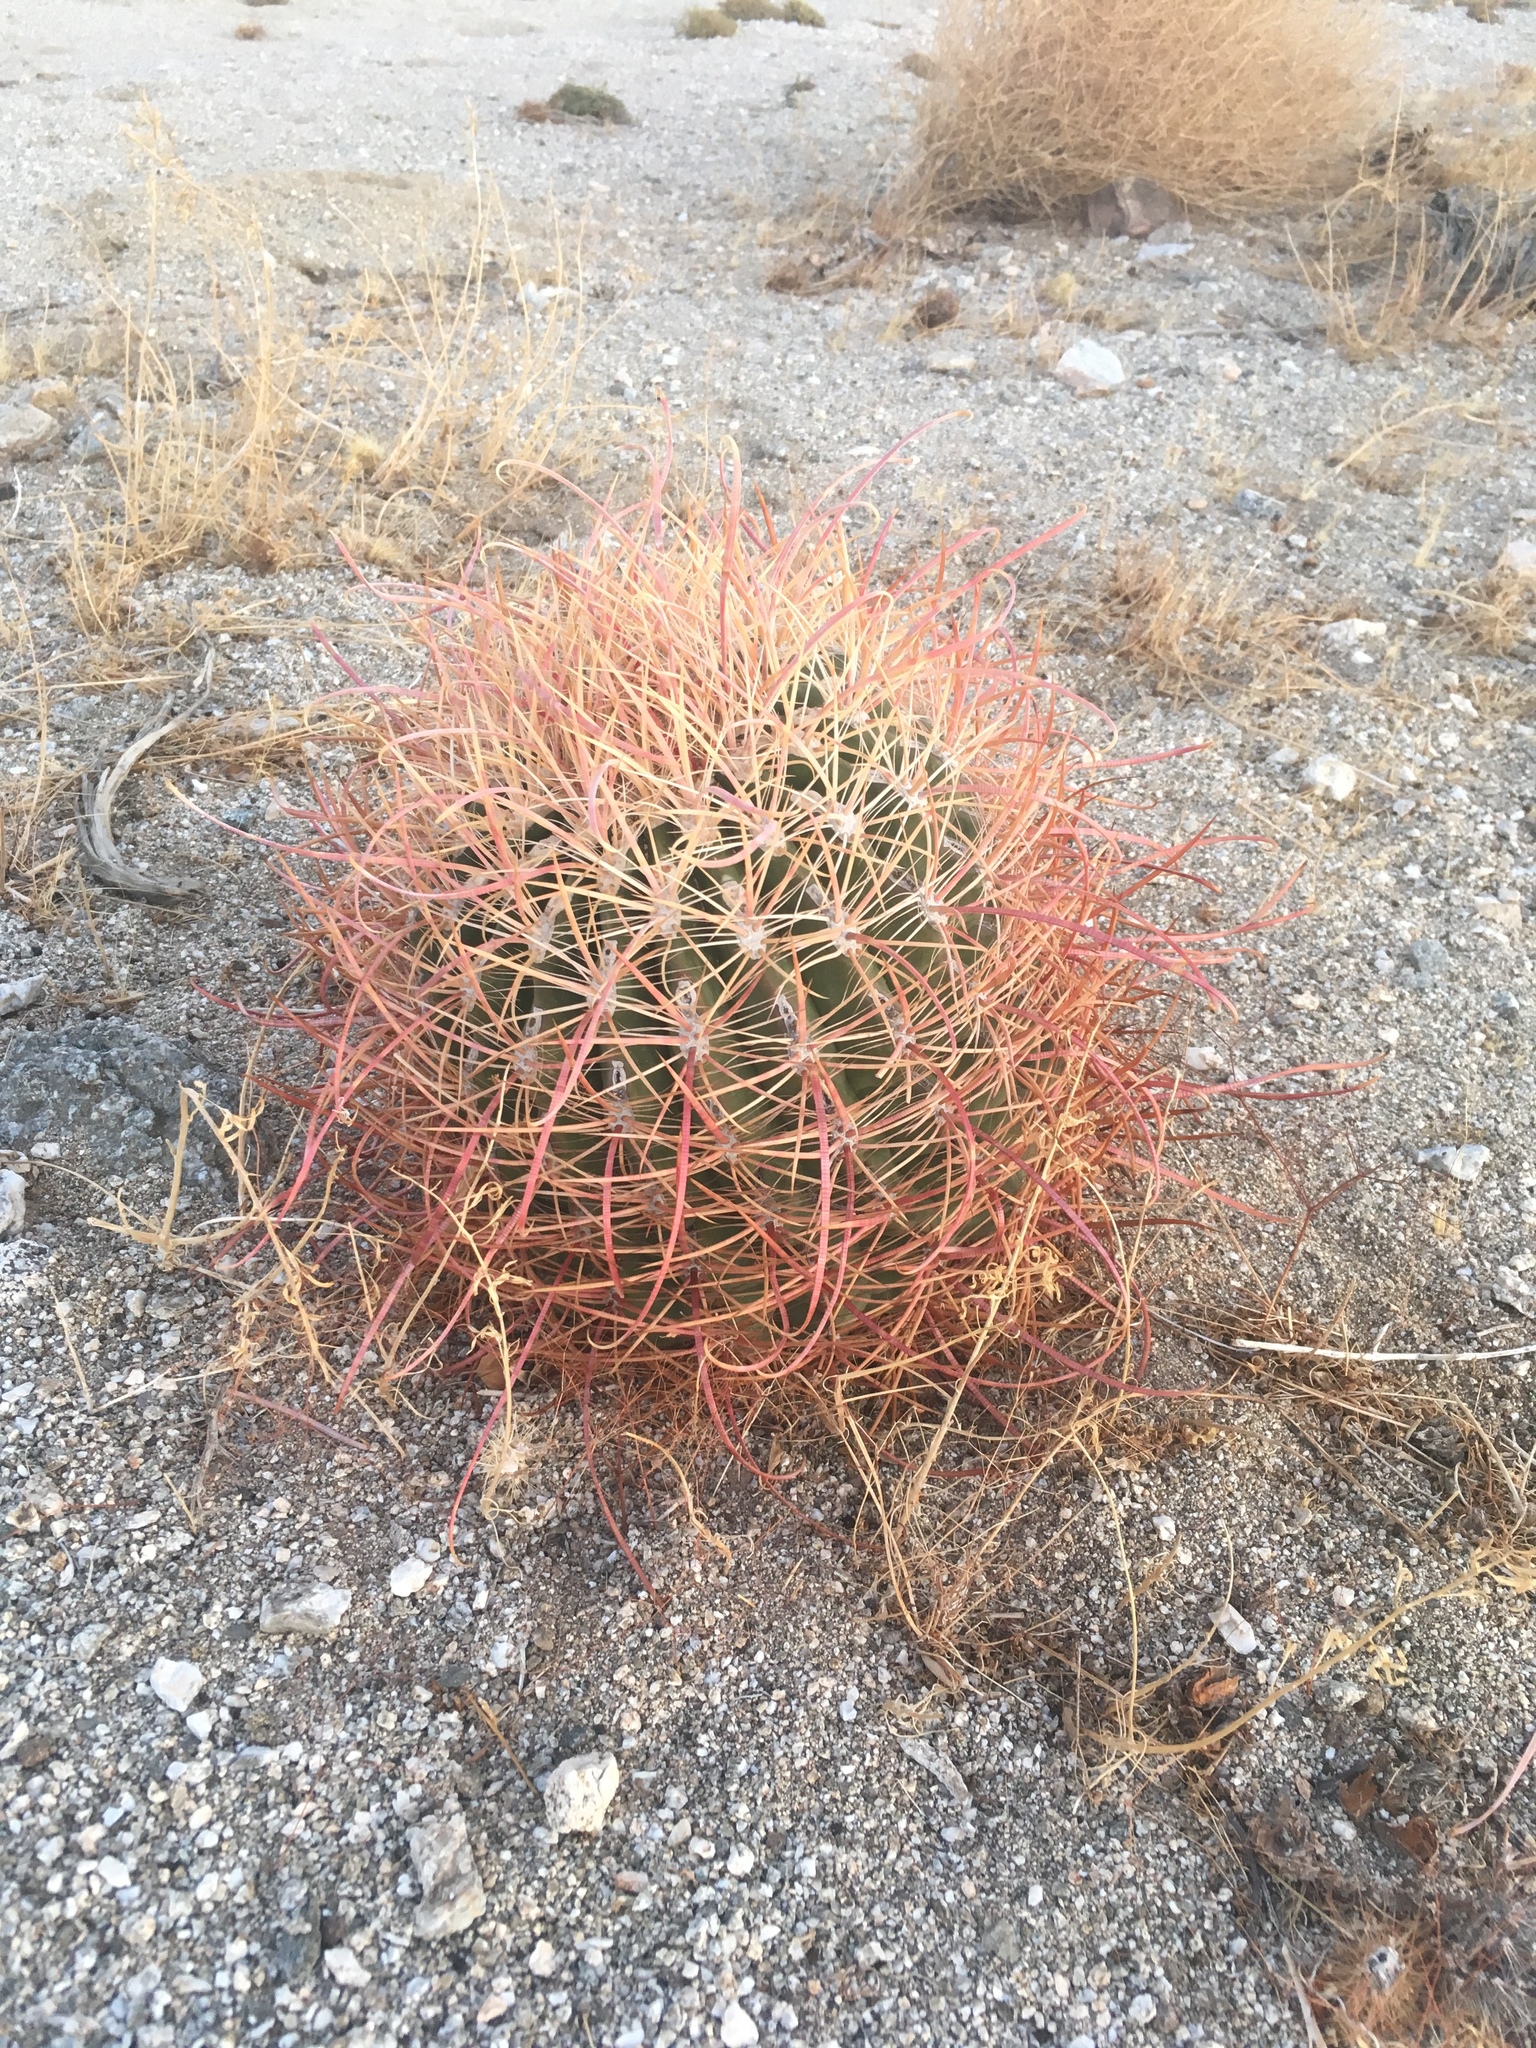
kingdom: Plantae
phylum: Tracheophyta
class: Magnoliopsida
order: Caryophyllales
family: Cactaceae
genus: Ferocactus
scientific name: Ferocactus cylindraceus
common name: California barrel cactus
